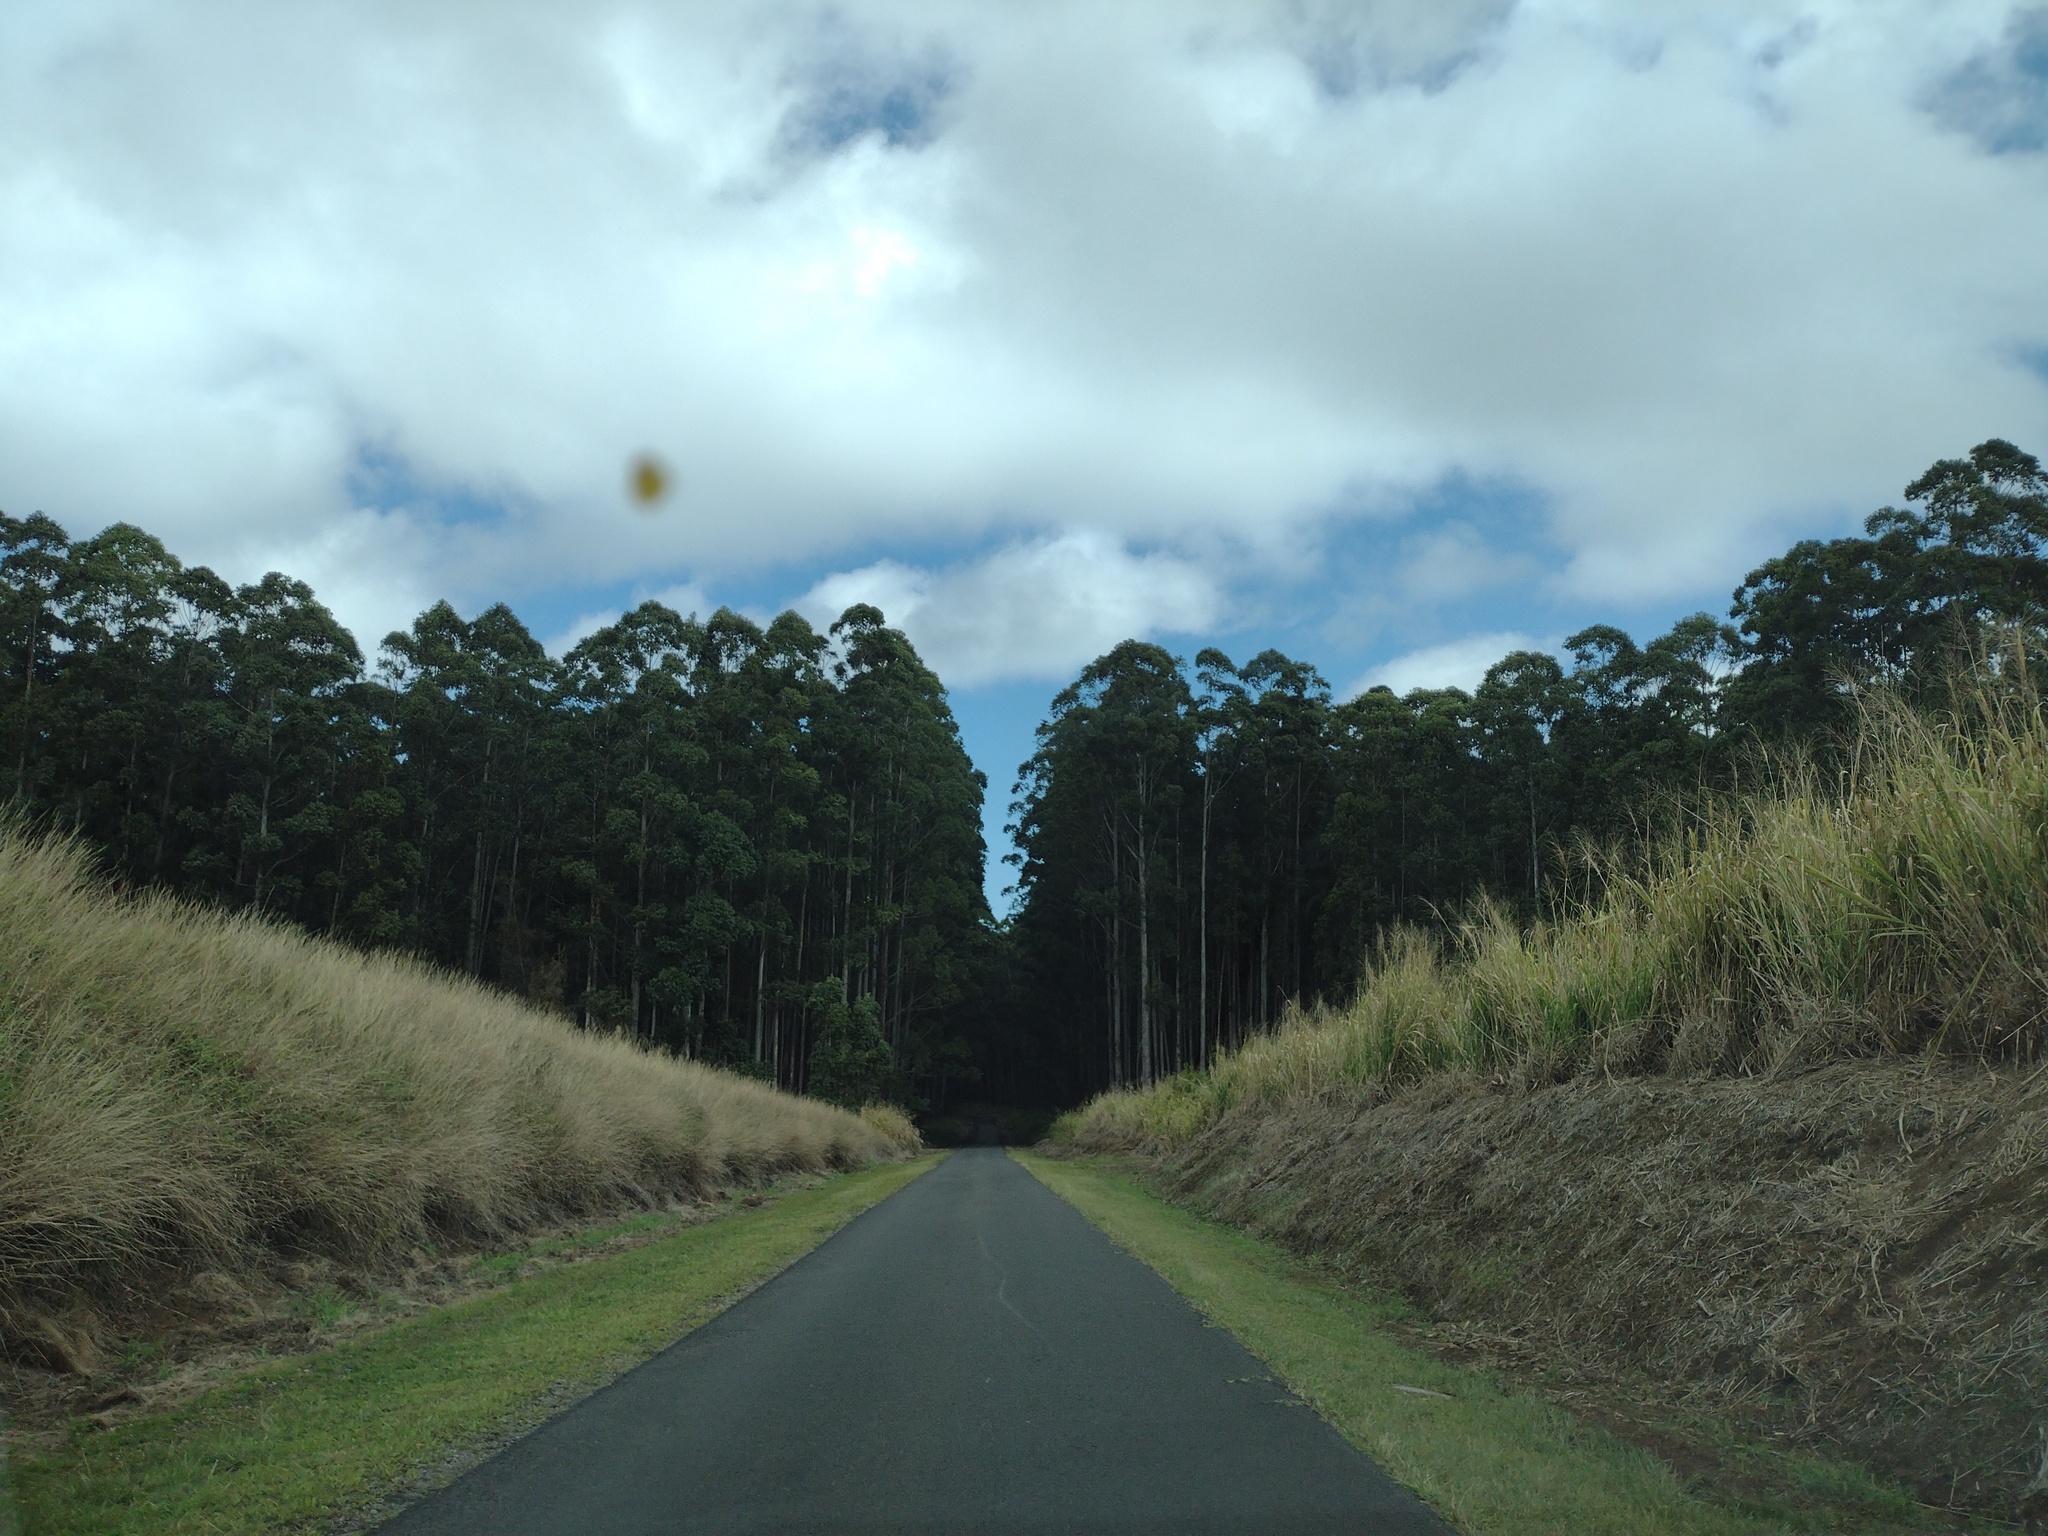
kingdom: Plantae
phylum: Tracheophyta
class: Liliopsida
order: Poales
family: Poaceae
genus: Megathyrsus
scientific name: Megathyrsus maximus
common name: Guineagrass
